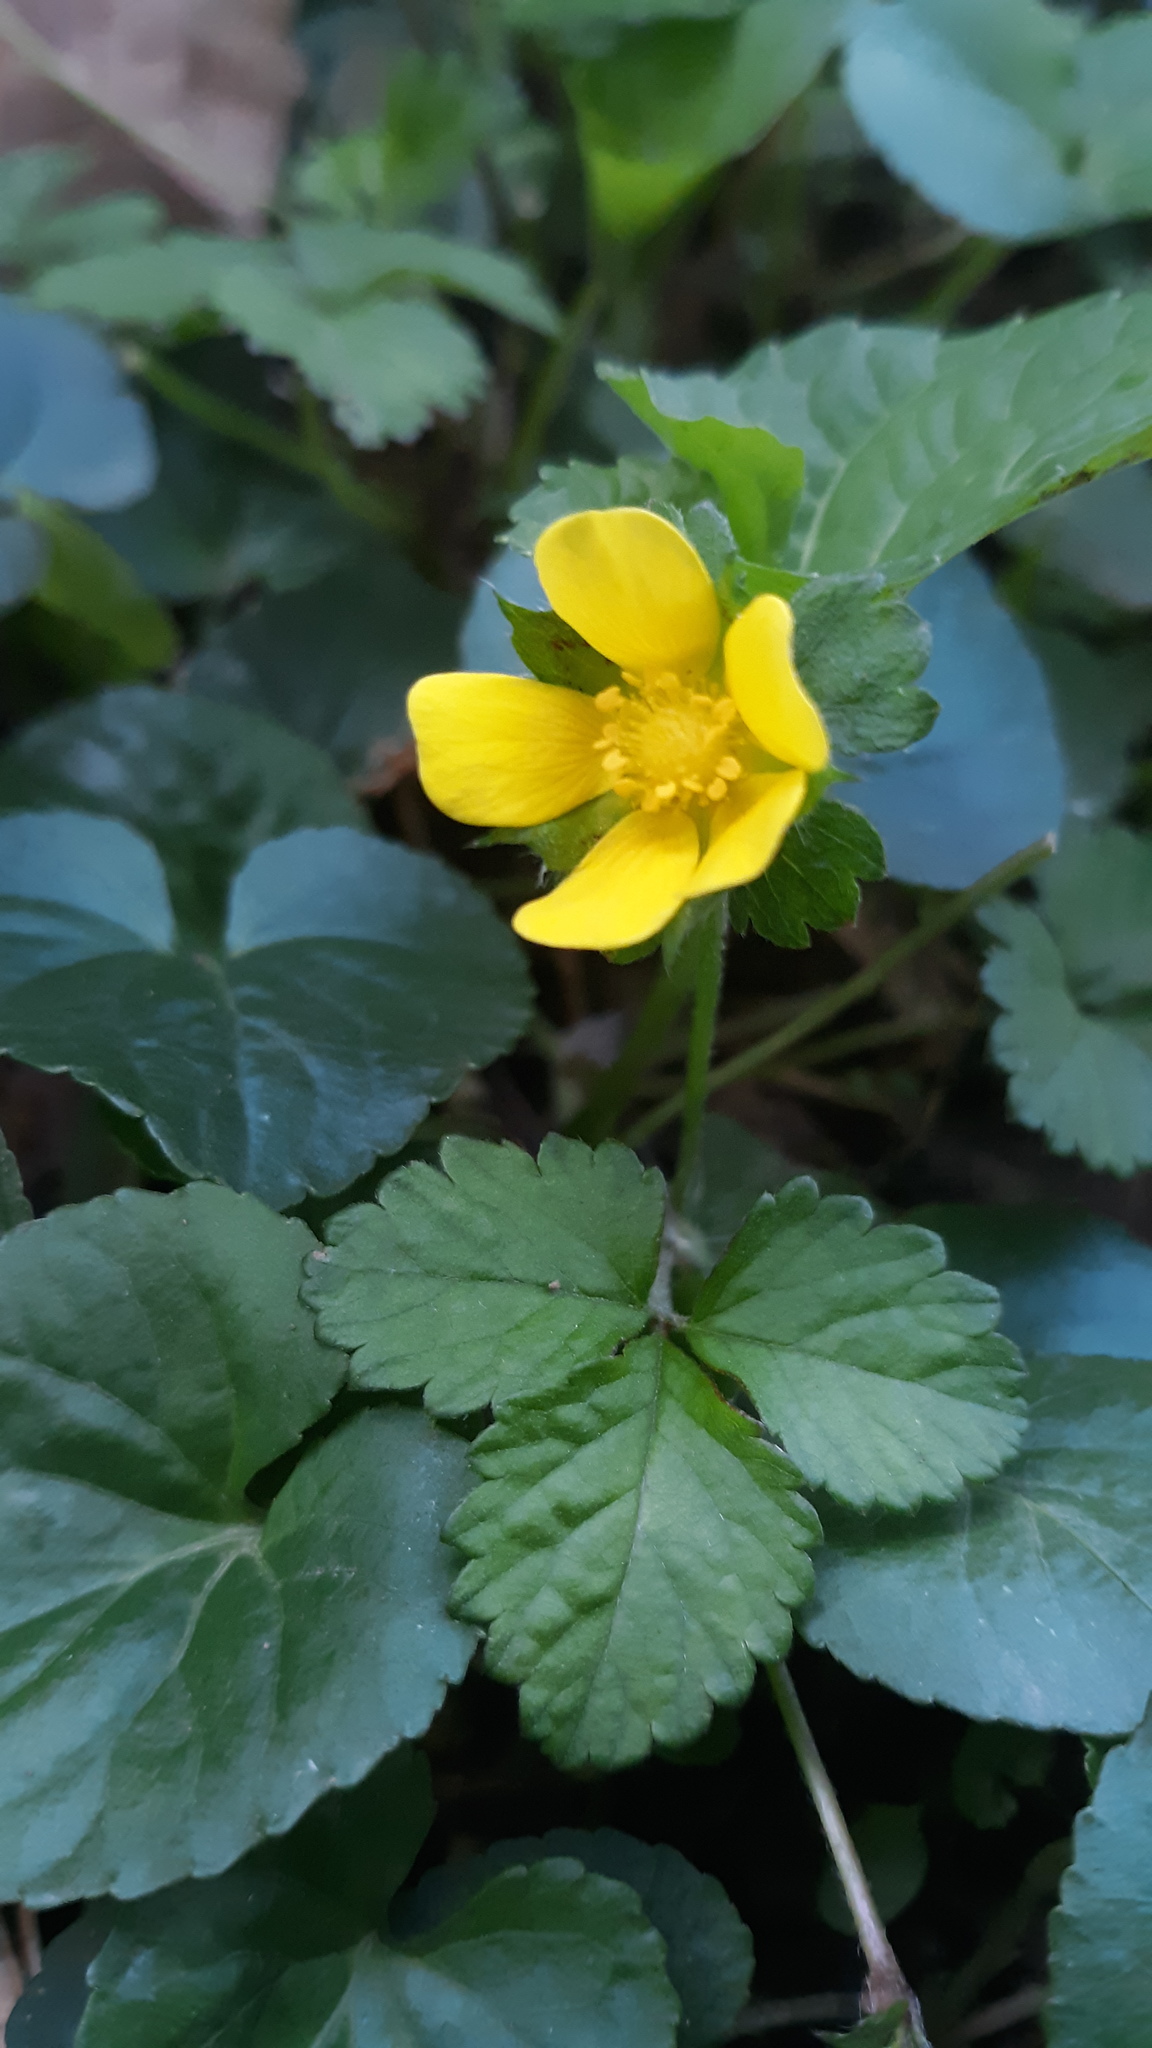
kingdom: Plantae
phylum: Tracheophyta
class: Magnoliopsida
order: Rosales
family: Rosaceae
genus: Potentilla
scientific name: Potentilla indica
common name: Yellow-flowered strawberry
